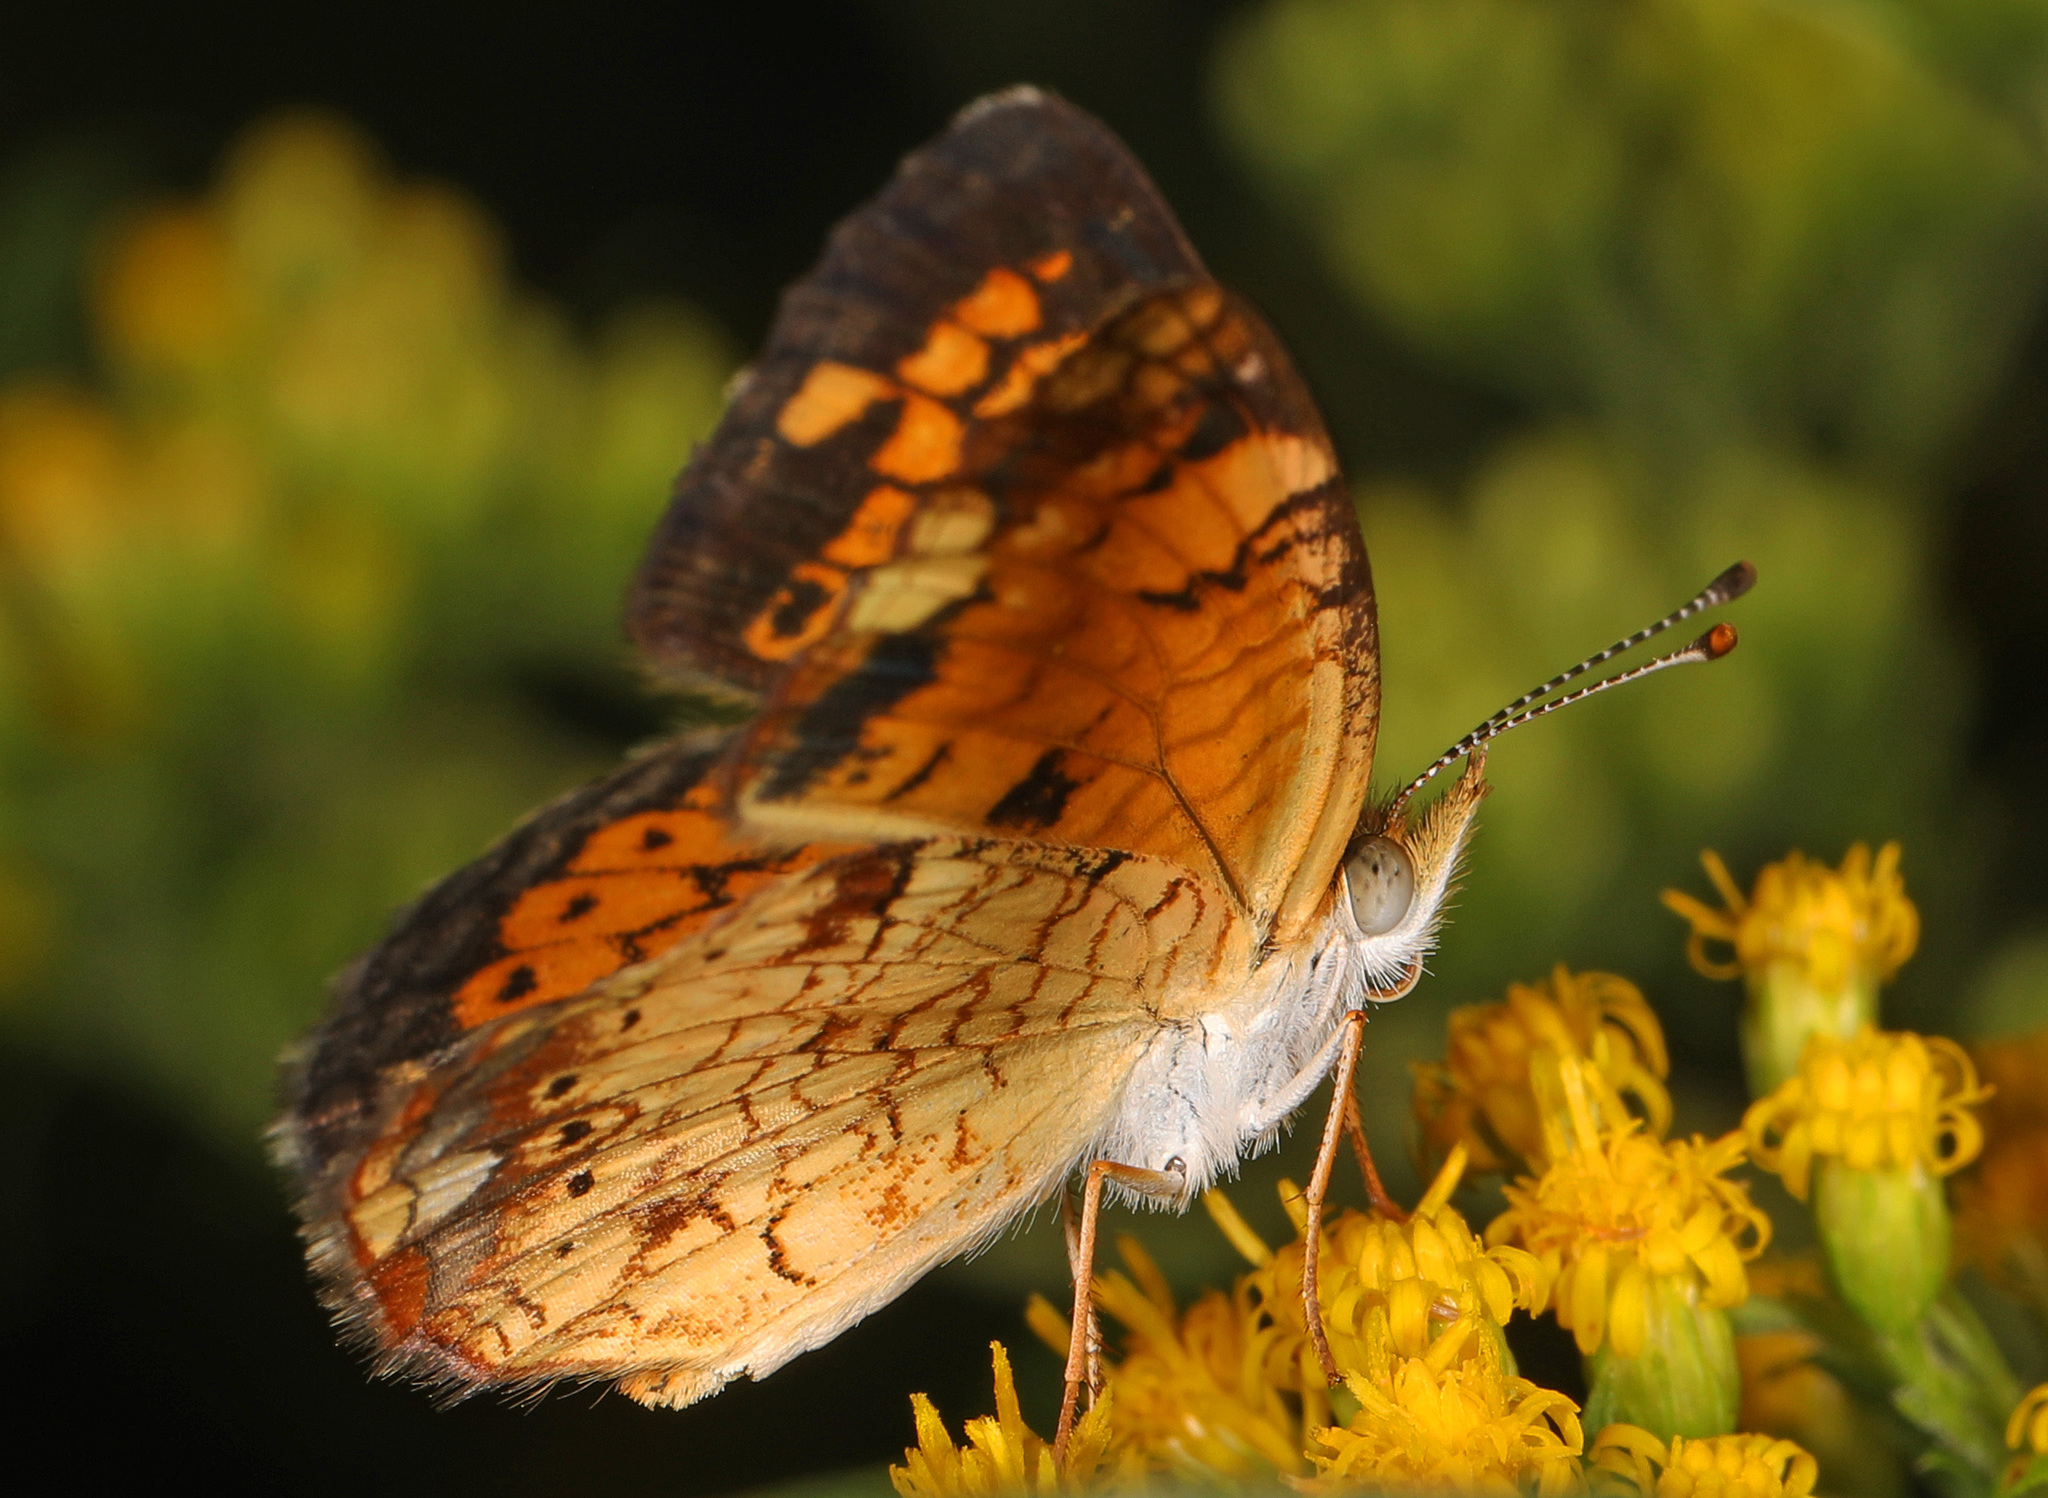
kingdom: Animalia
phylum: Arthropoda
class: Insecta
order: Lepidoptera
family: Nymphalidae
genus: Phyciodes
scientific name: Phyciodes tharos
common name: Pearl crescent
